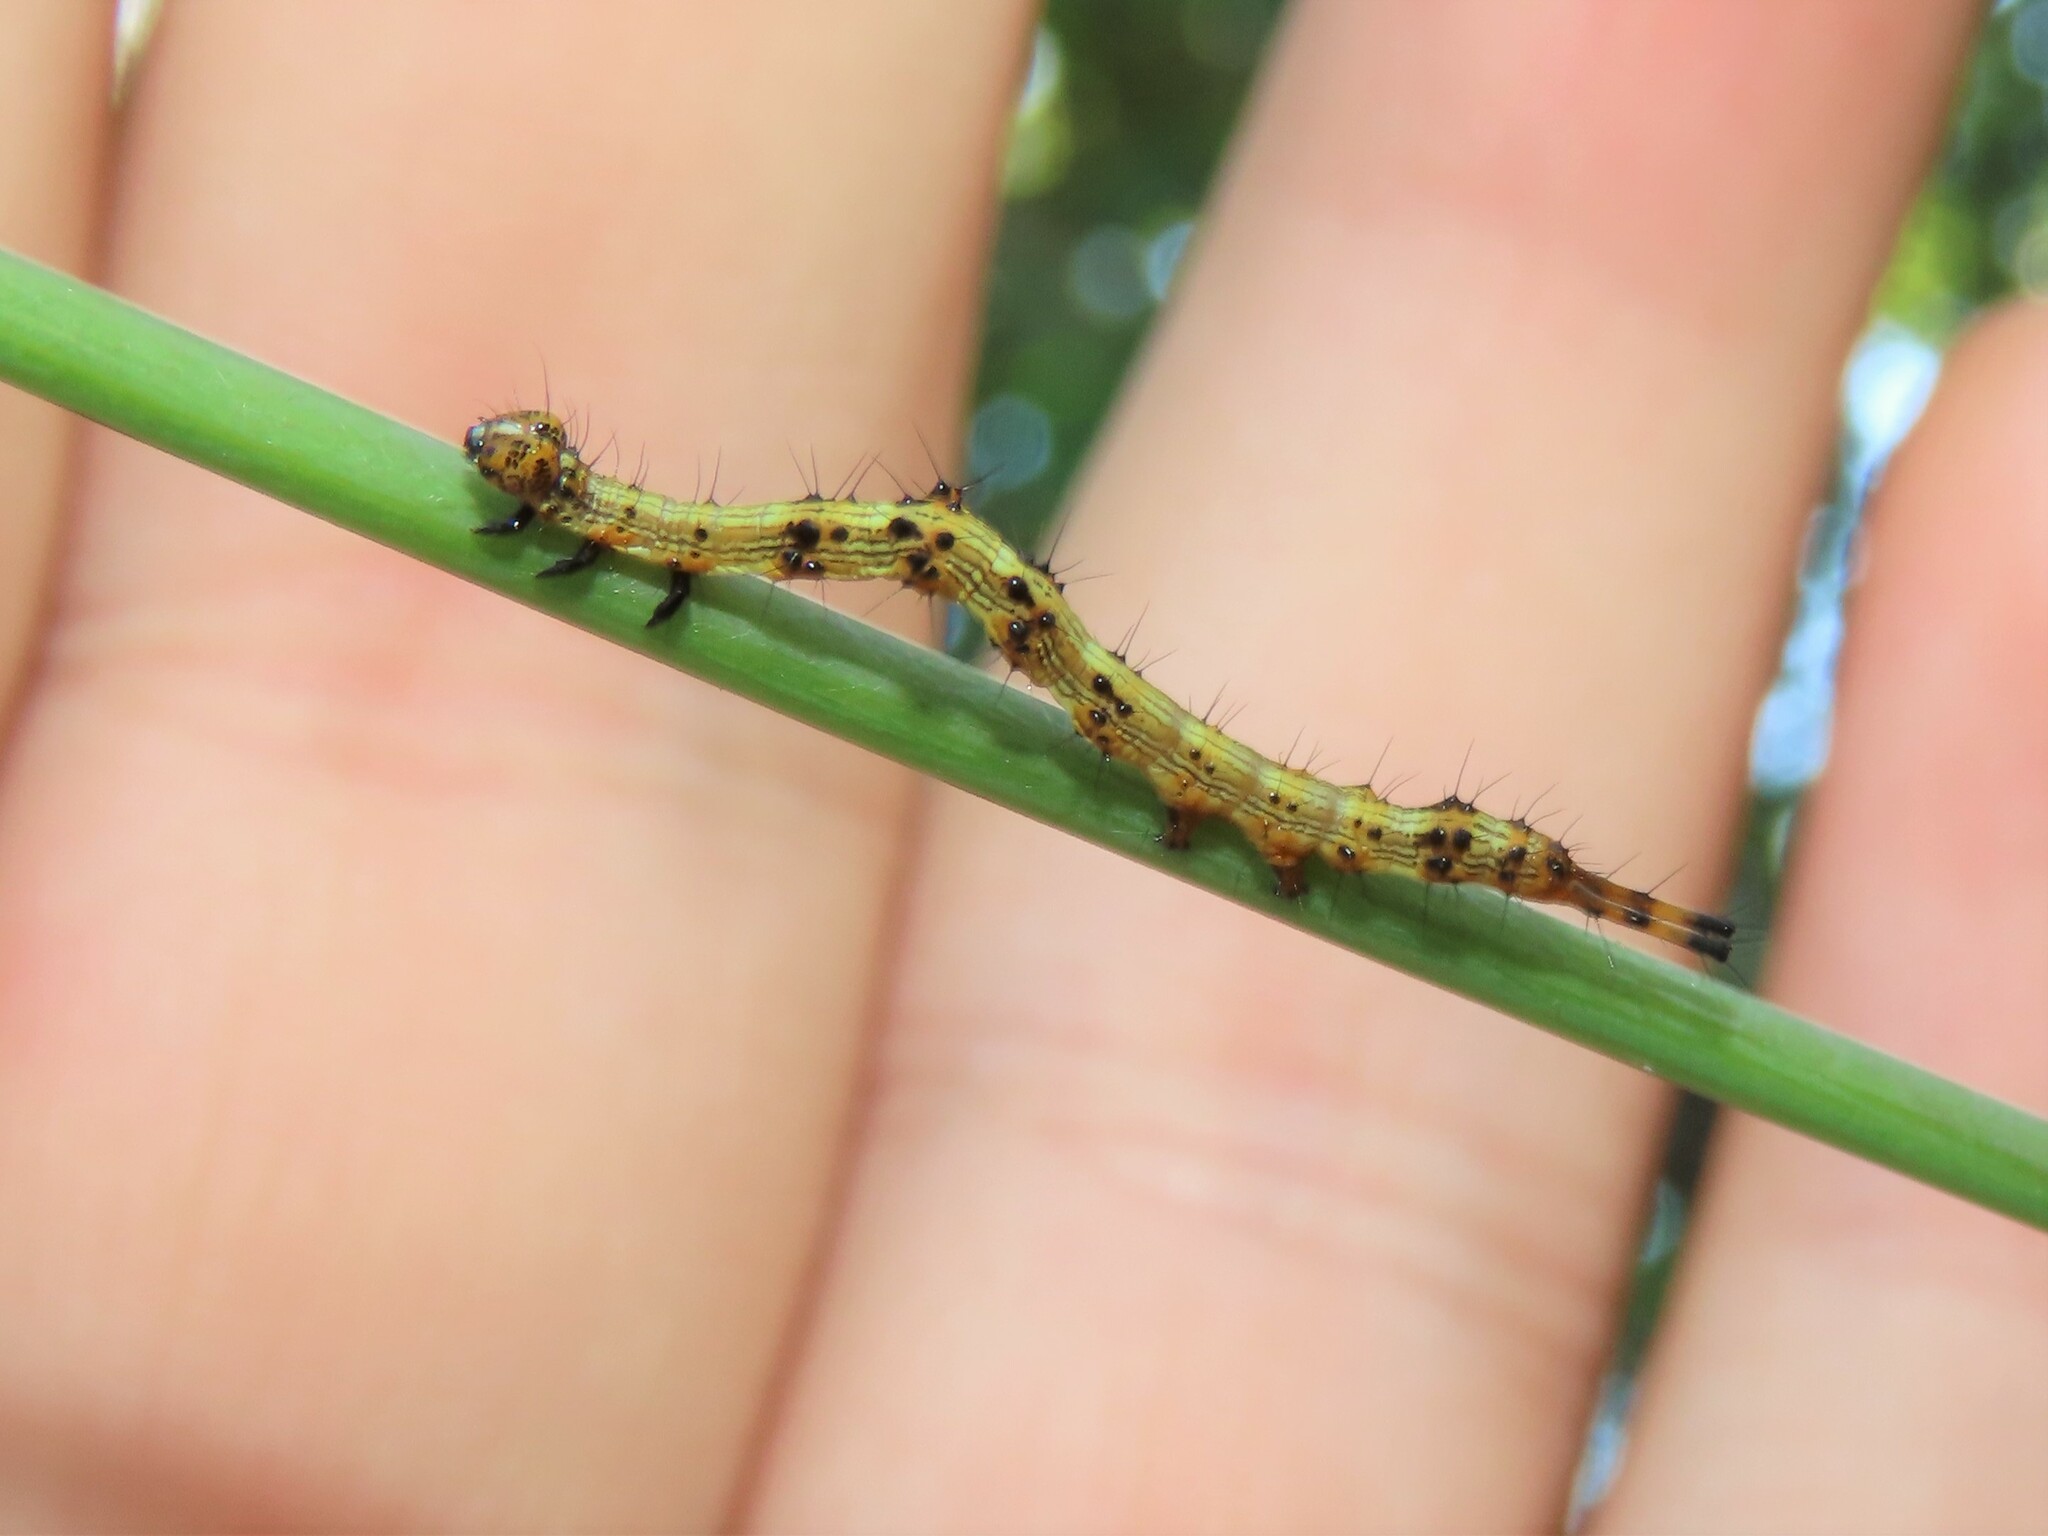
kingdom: Animalia
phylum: Arthropoda
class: Insecta
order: Lepidoptera
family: Erebidae
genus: Selenisa
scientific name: Selenisa sueroides
